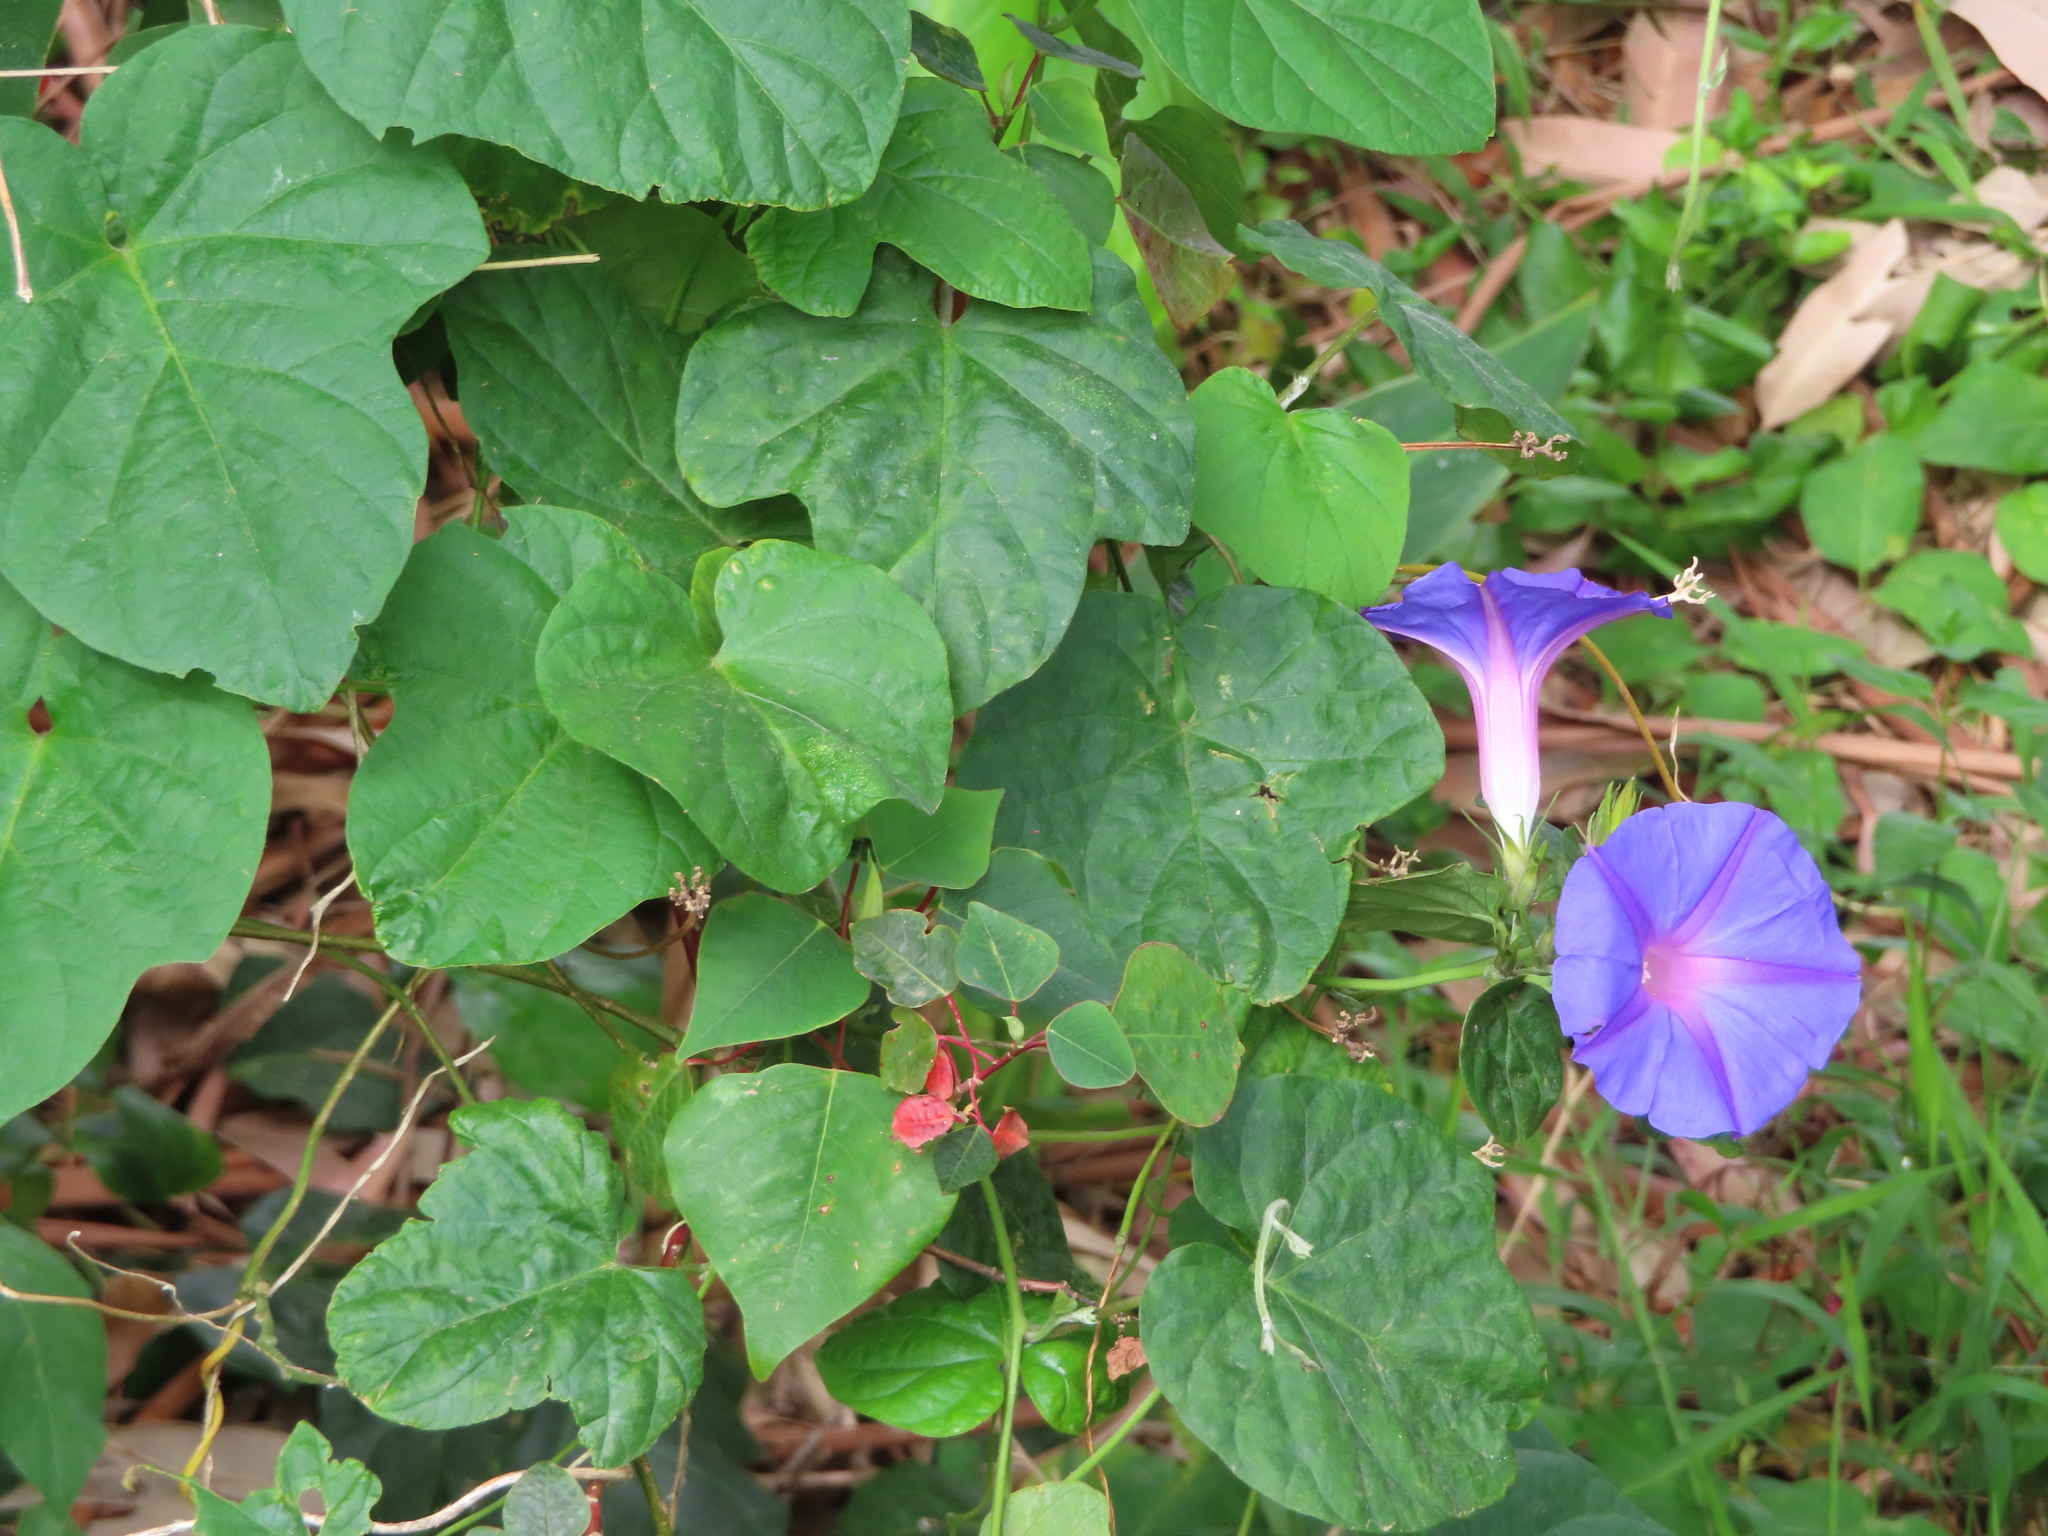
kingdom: Plantae
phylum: Tracheophyta
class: Magnoliopsida
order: Solanales
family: Convolvulaceae
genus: Ipomoea
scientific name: Ipomoea indica
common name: Blue dawnflower
